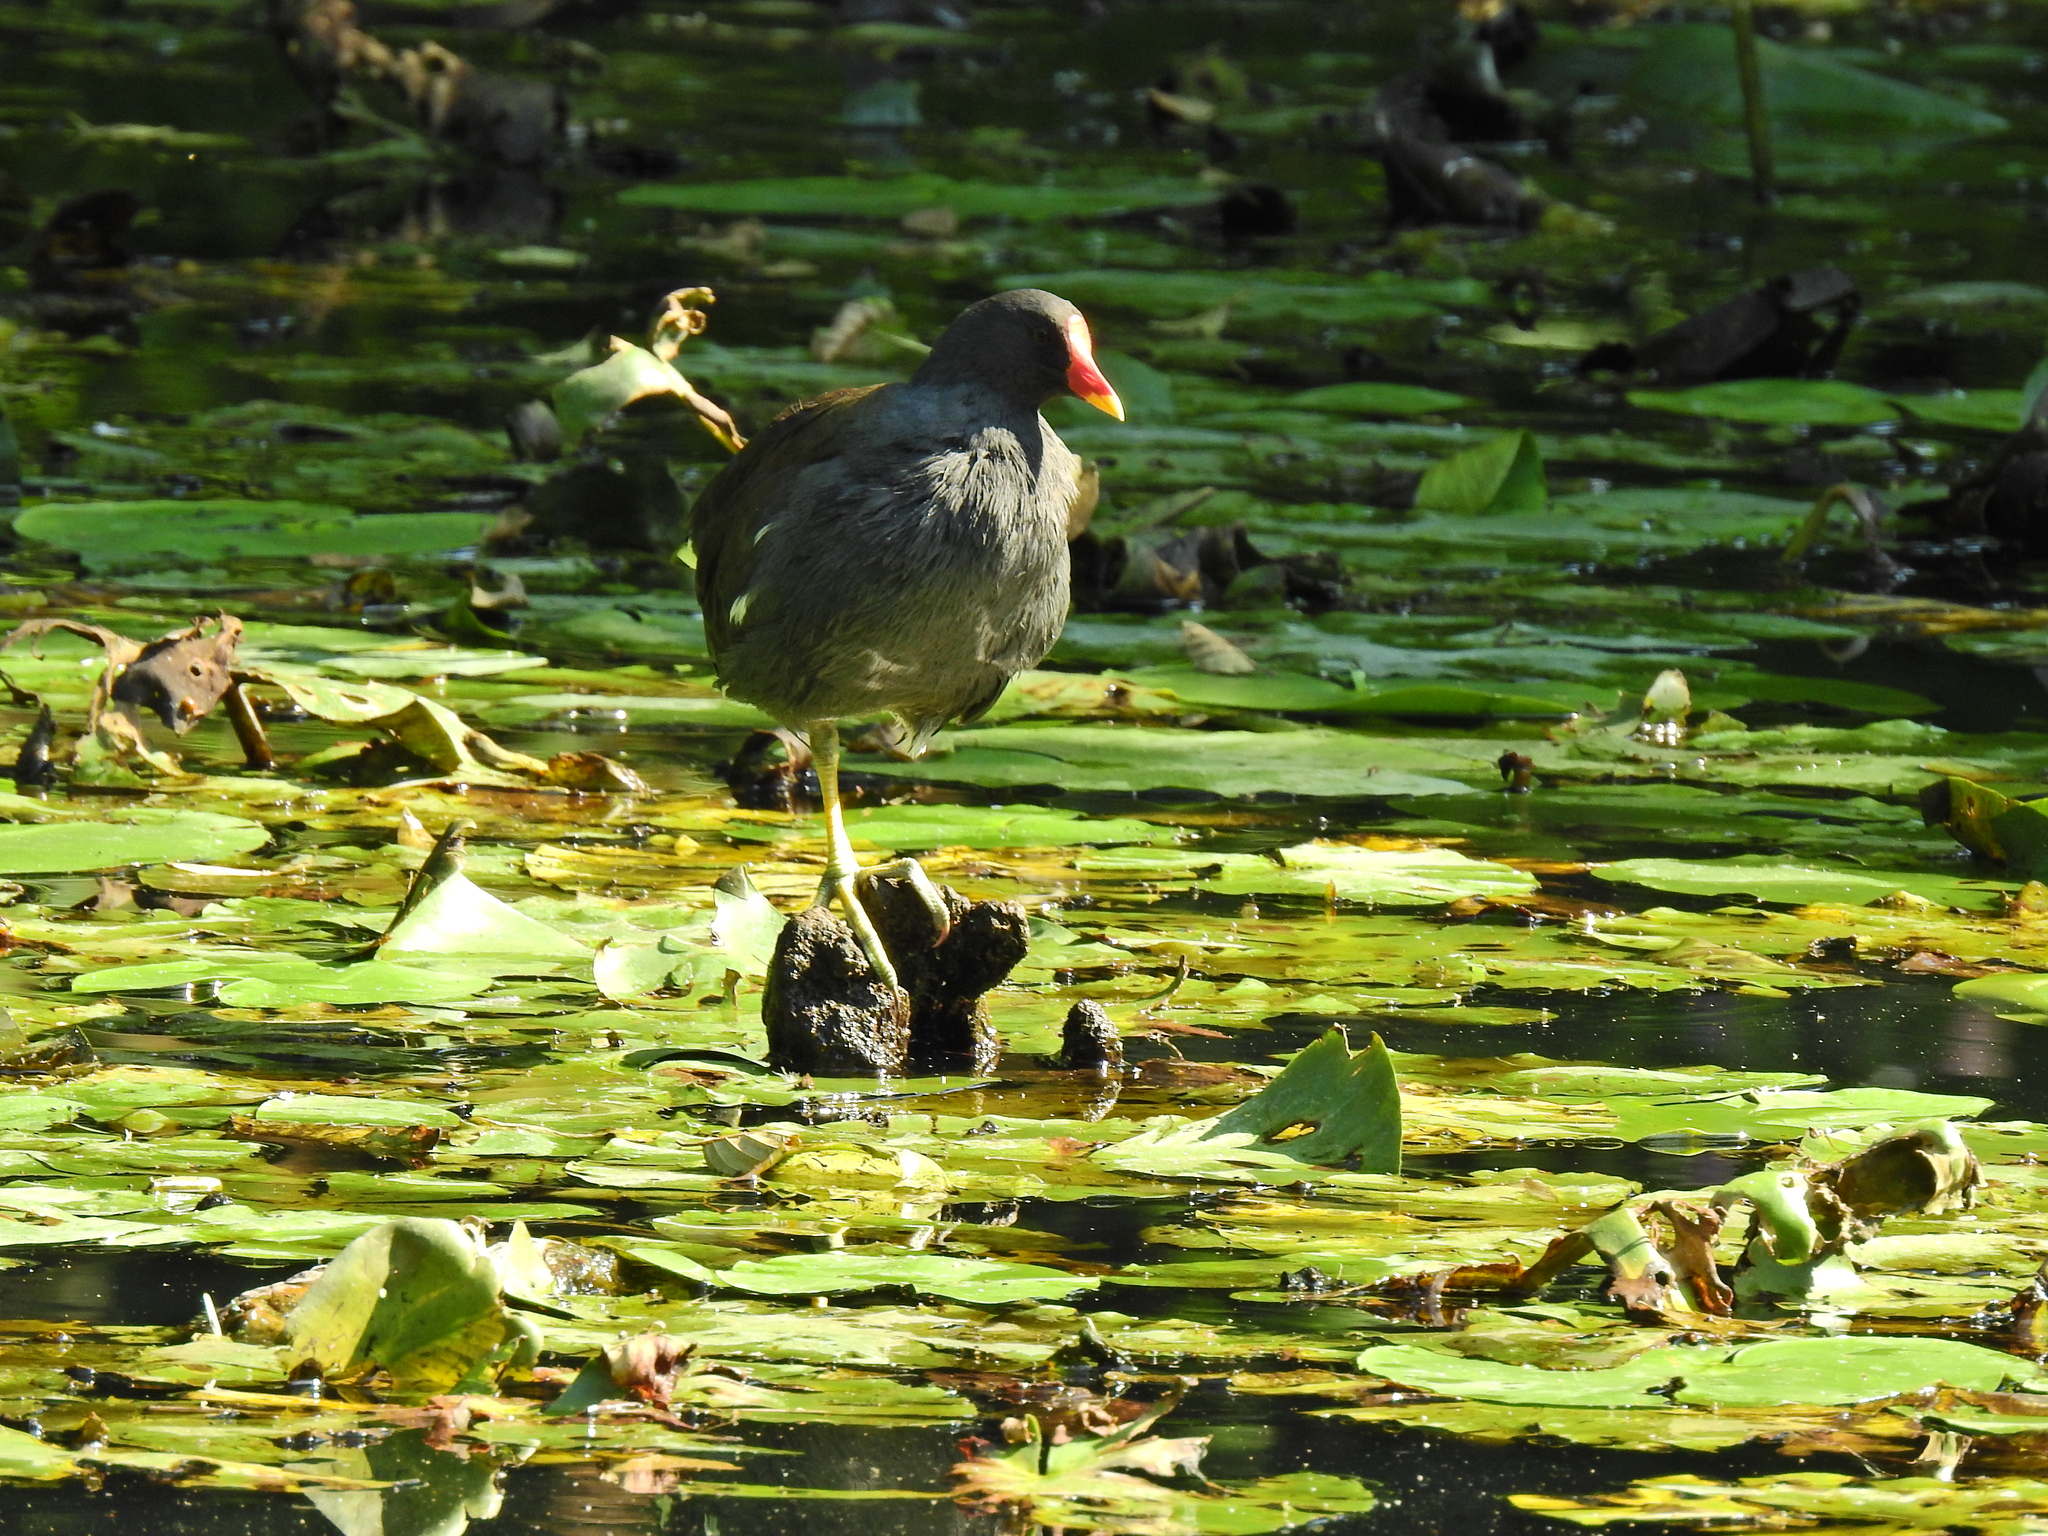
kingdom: Animalia
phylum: Chordata
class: Aves
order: Gruiformes
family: Rallidae
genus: Gallinula
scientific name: Gallinula chloropus
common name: Common moorhen
